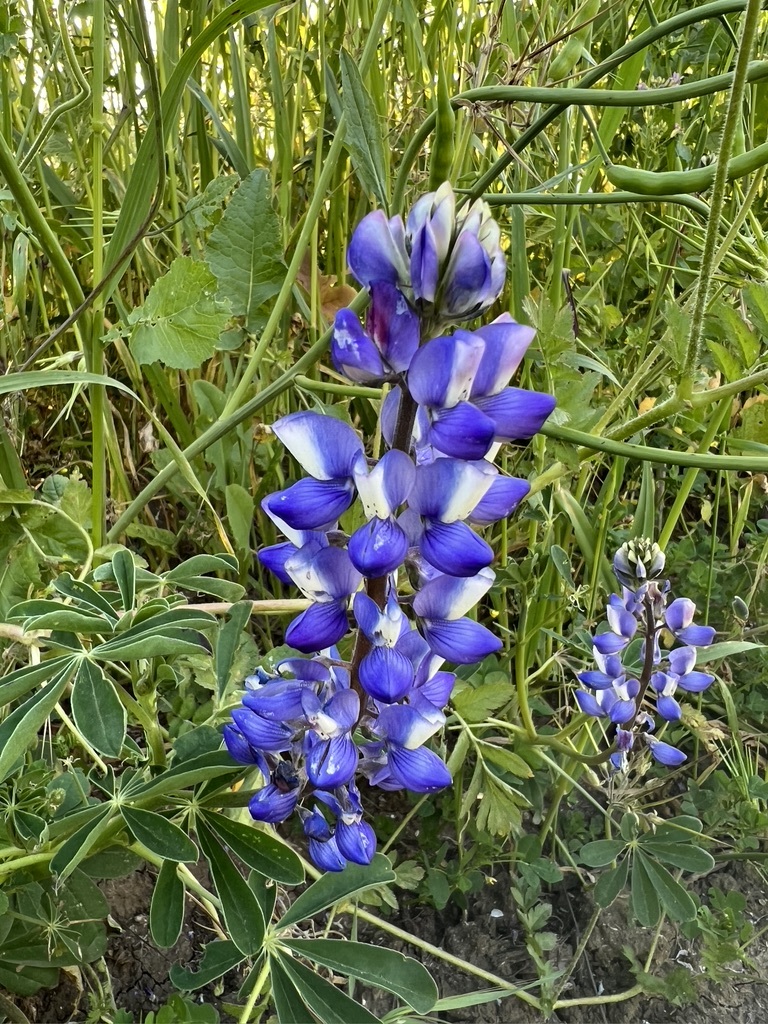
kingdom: Plantae
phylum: Tracheophyta
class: Magnoliopsida
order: Fabales
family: Fabaceae
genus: Lupinus
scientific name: Lupinus succulentus
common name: Arroyo lupine
